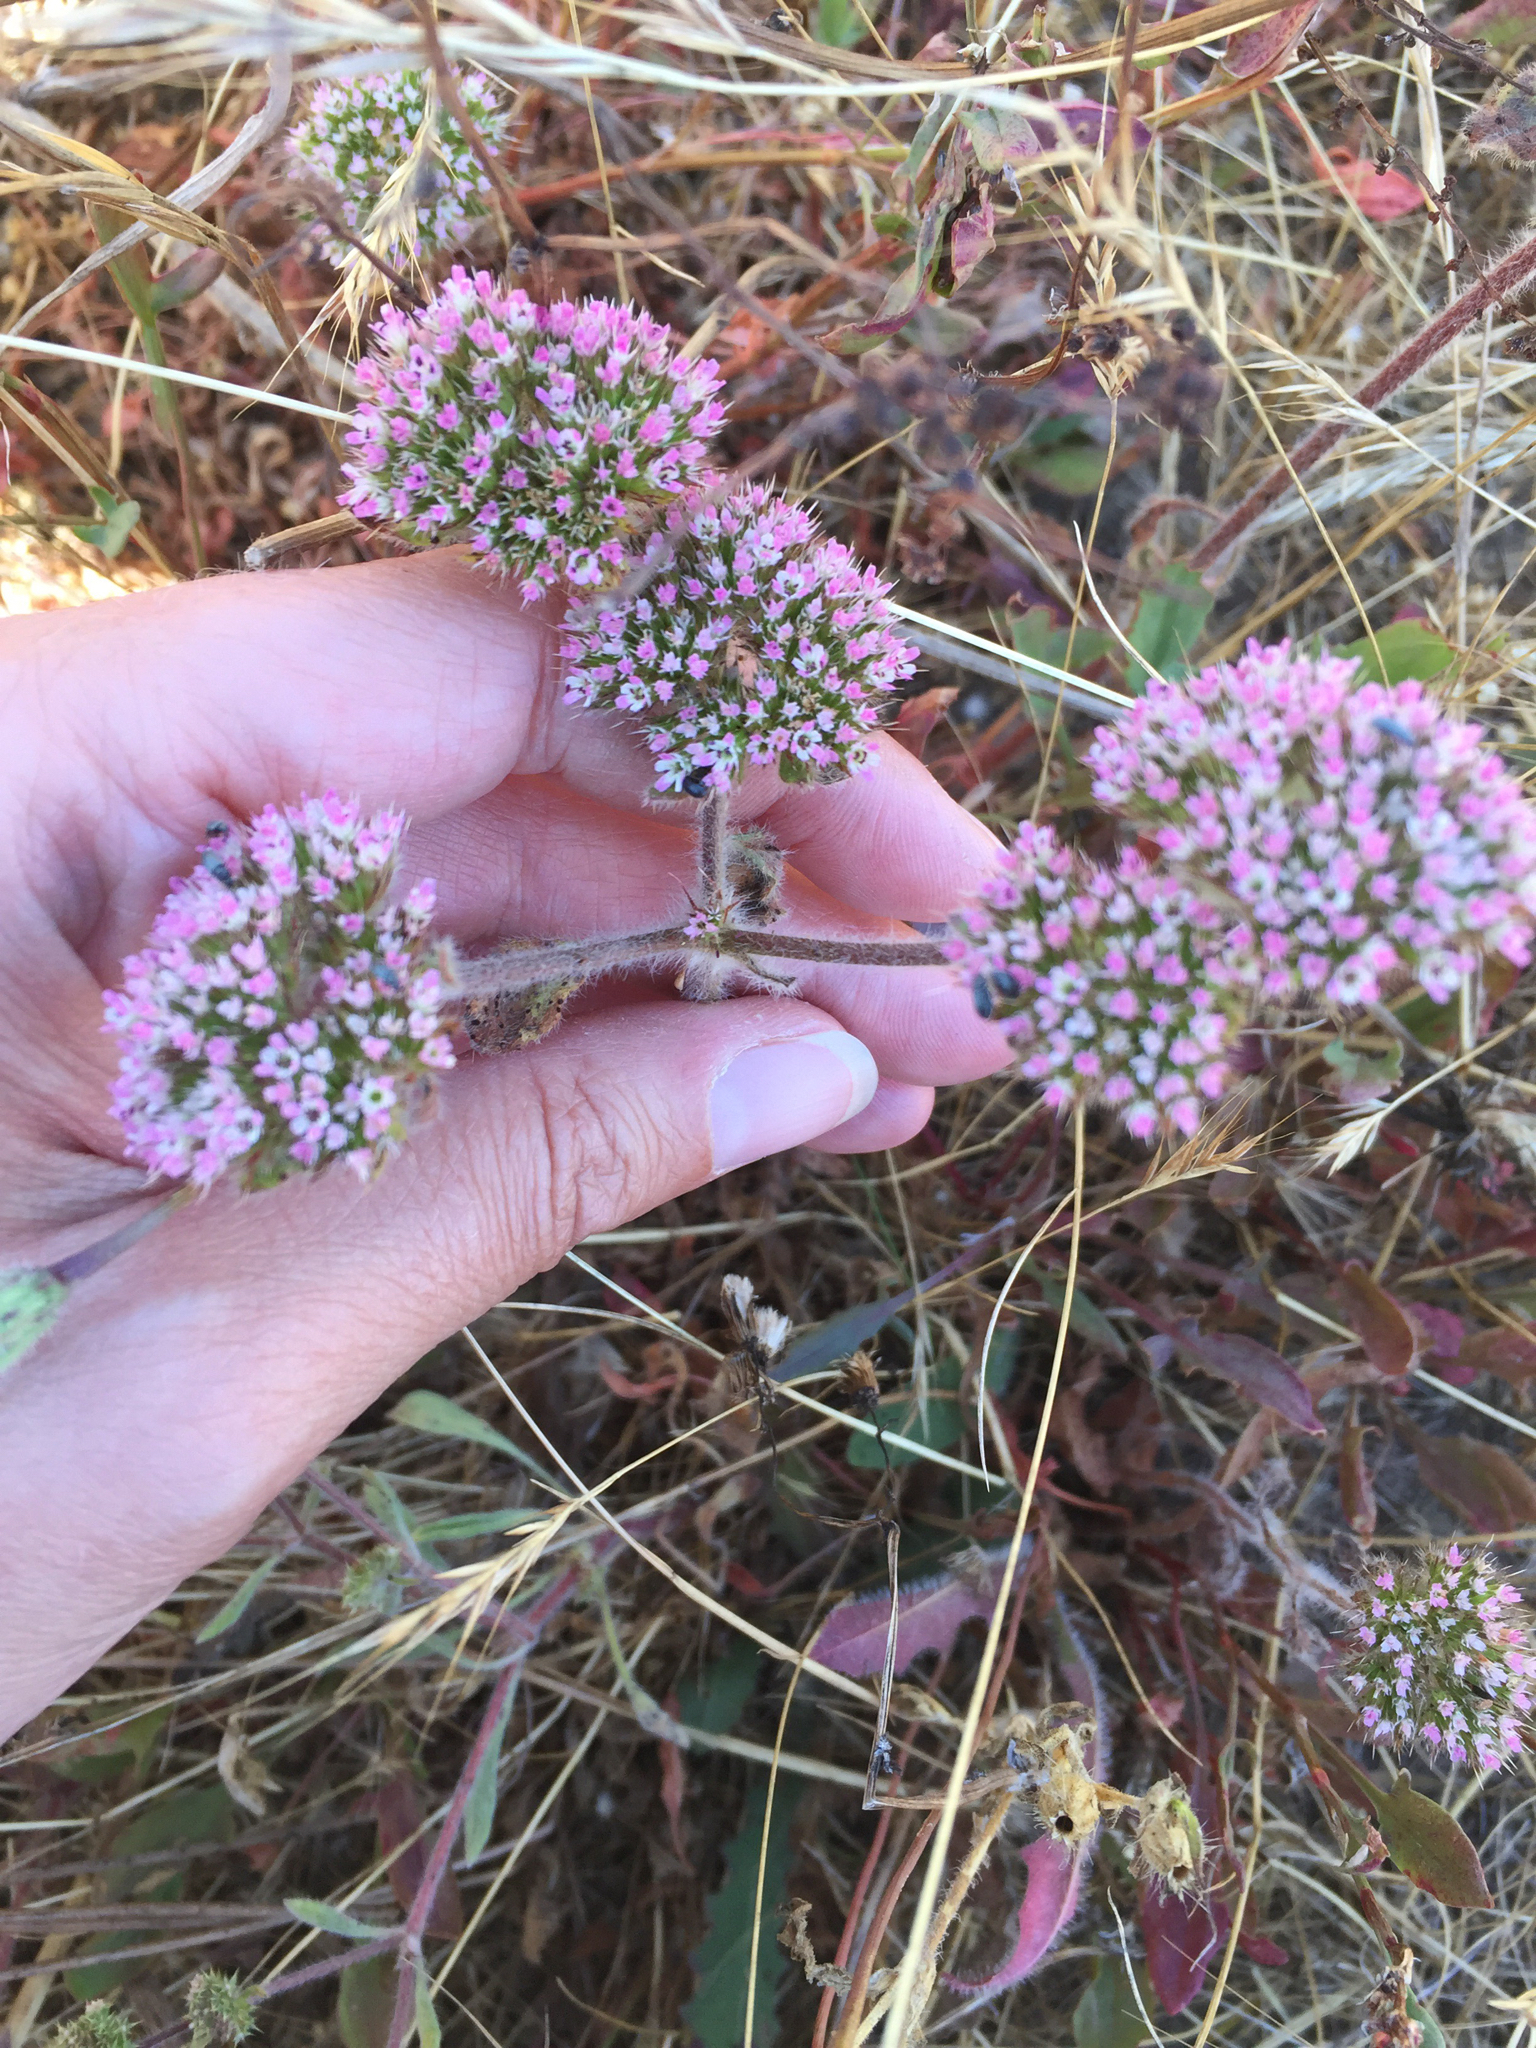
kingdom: Plantae
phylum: Tracheophyta
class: Magnoliopsida
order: Caryophyllales
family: Polygonaceae
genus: Chorizanthe
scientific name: Chorizanthe valida
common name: Sonoma spineflower
